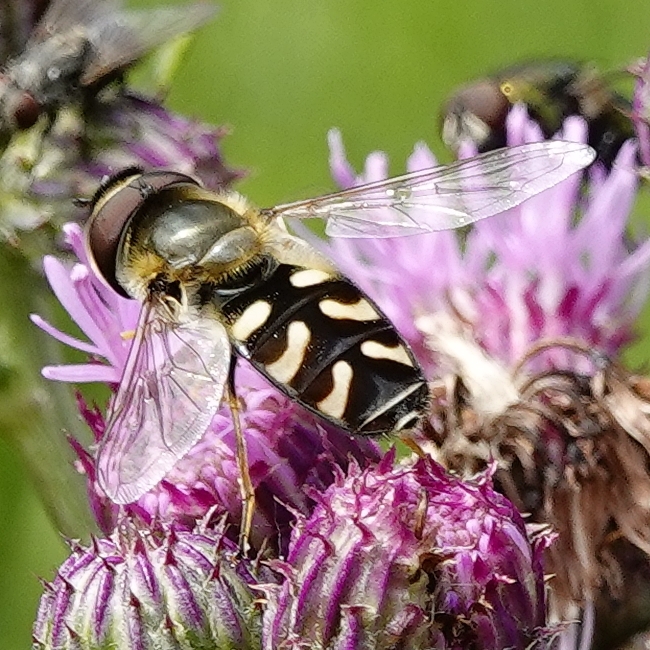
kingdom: Animalia
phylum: Arthropoda
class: Insecta
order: Diptera
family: Syrphidae
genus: Scaeva
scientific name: Scaeva pyrastri
